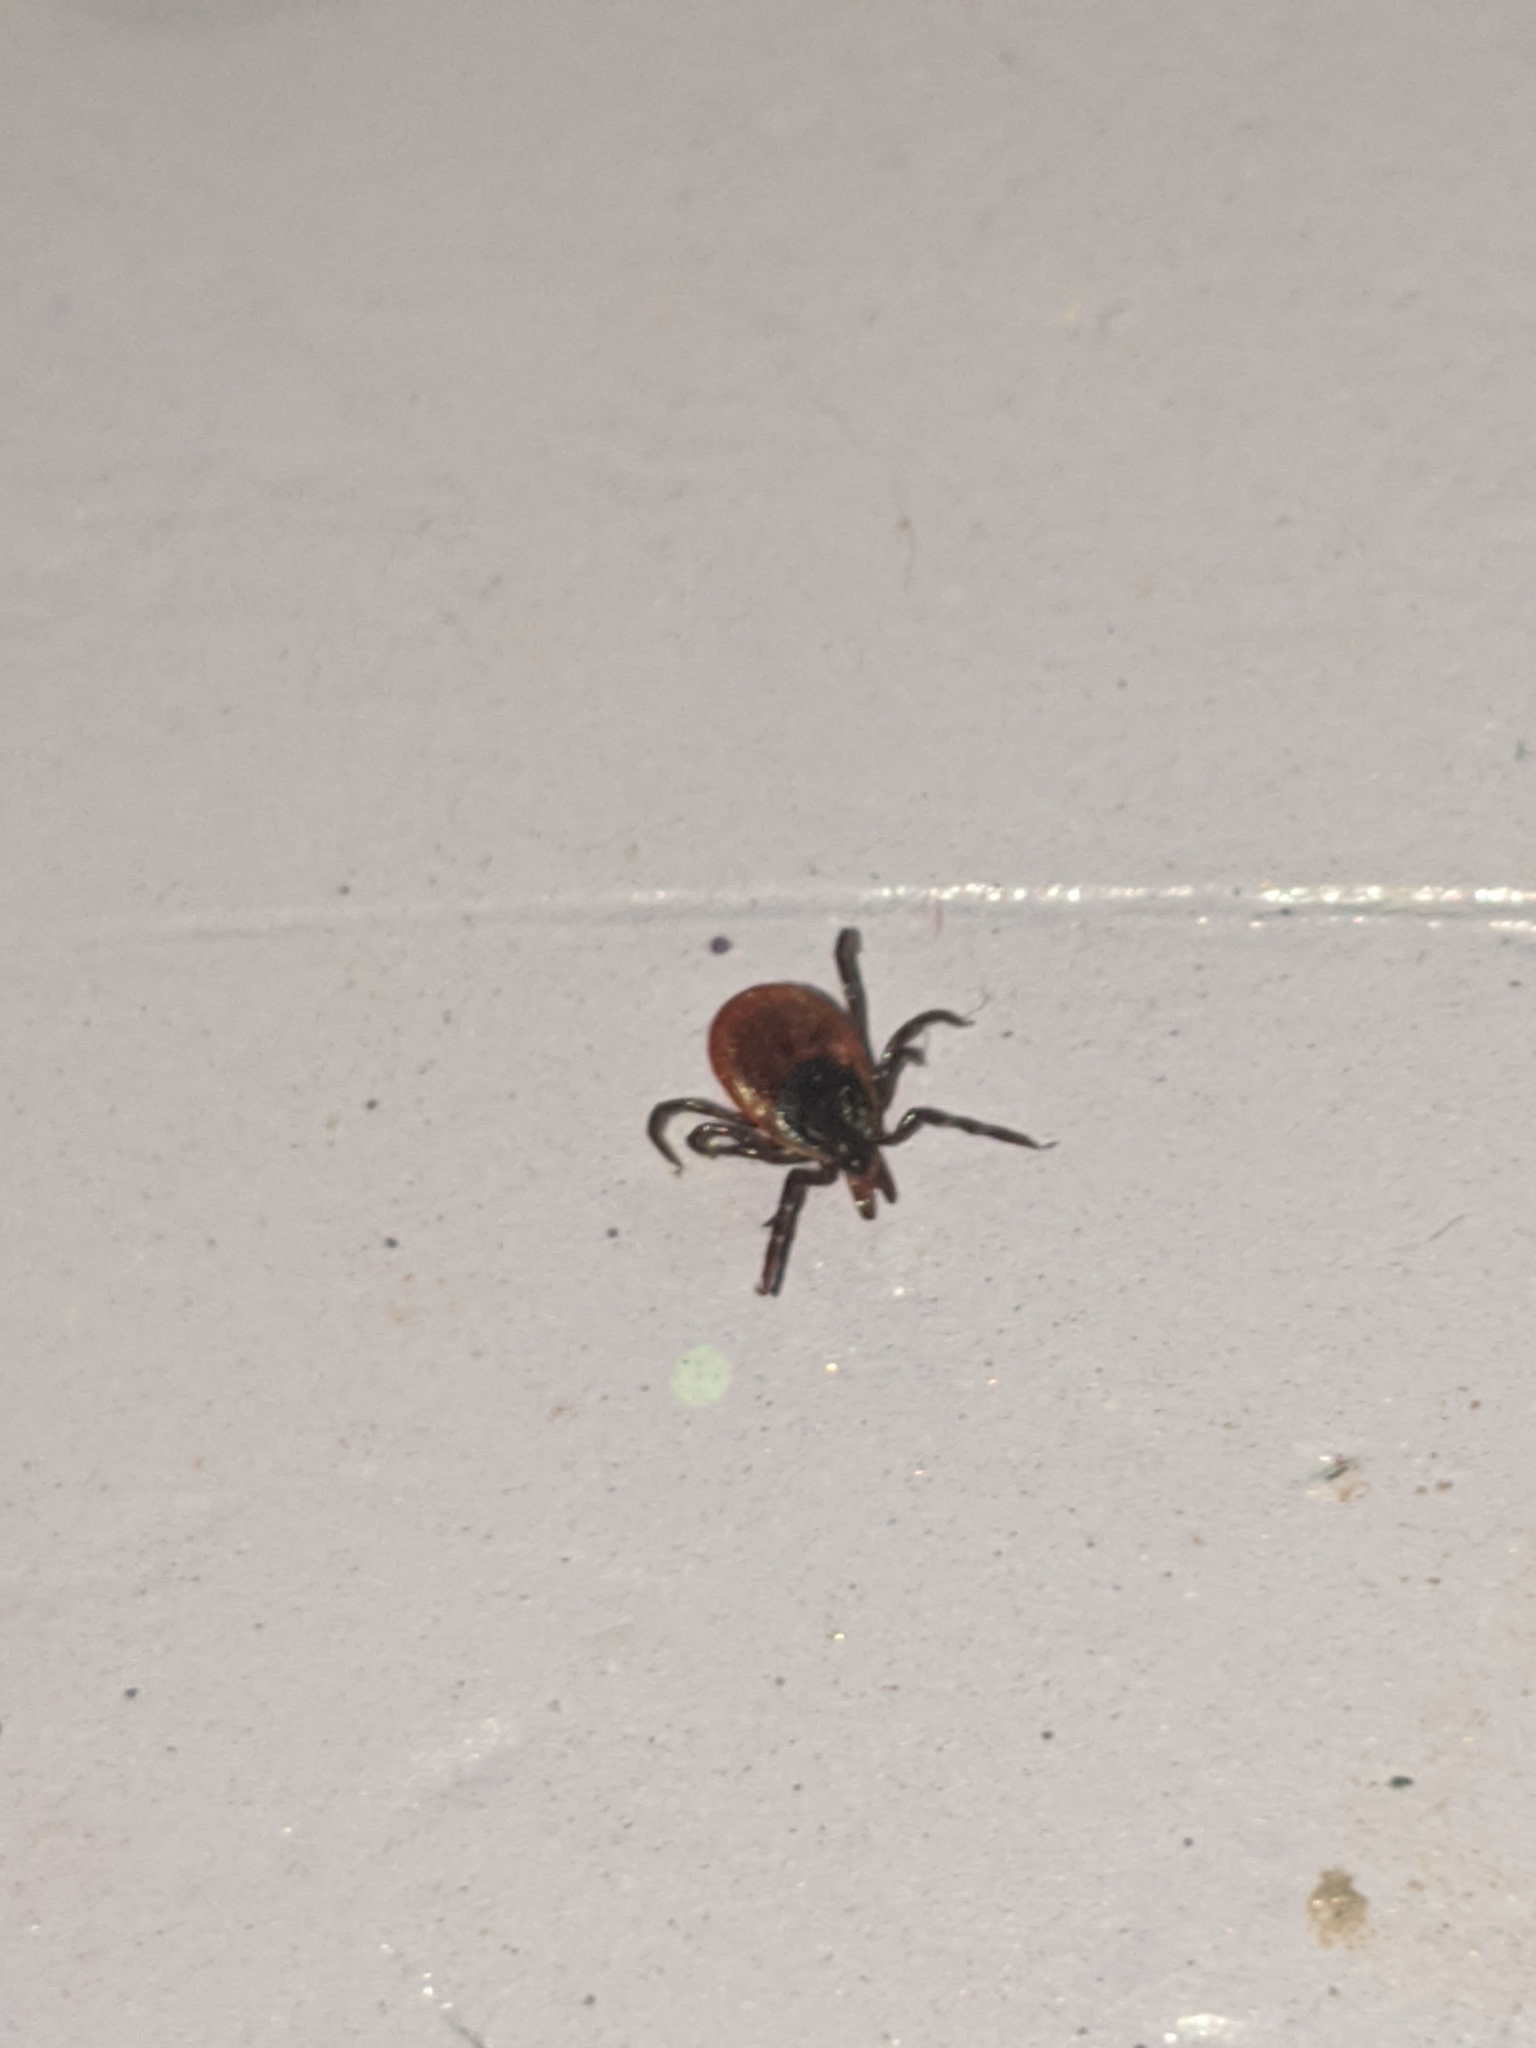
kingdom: Animalia
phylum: Arthropoda
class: Arachnida
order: Ixodida
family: Ixodidae
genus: Ixodes
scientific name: Ixodes scapularis
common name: Black legged tick
